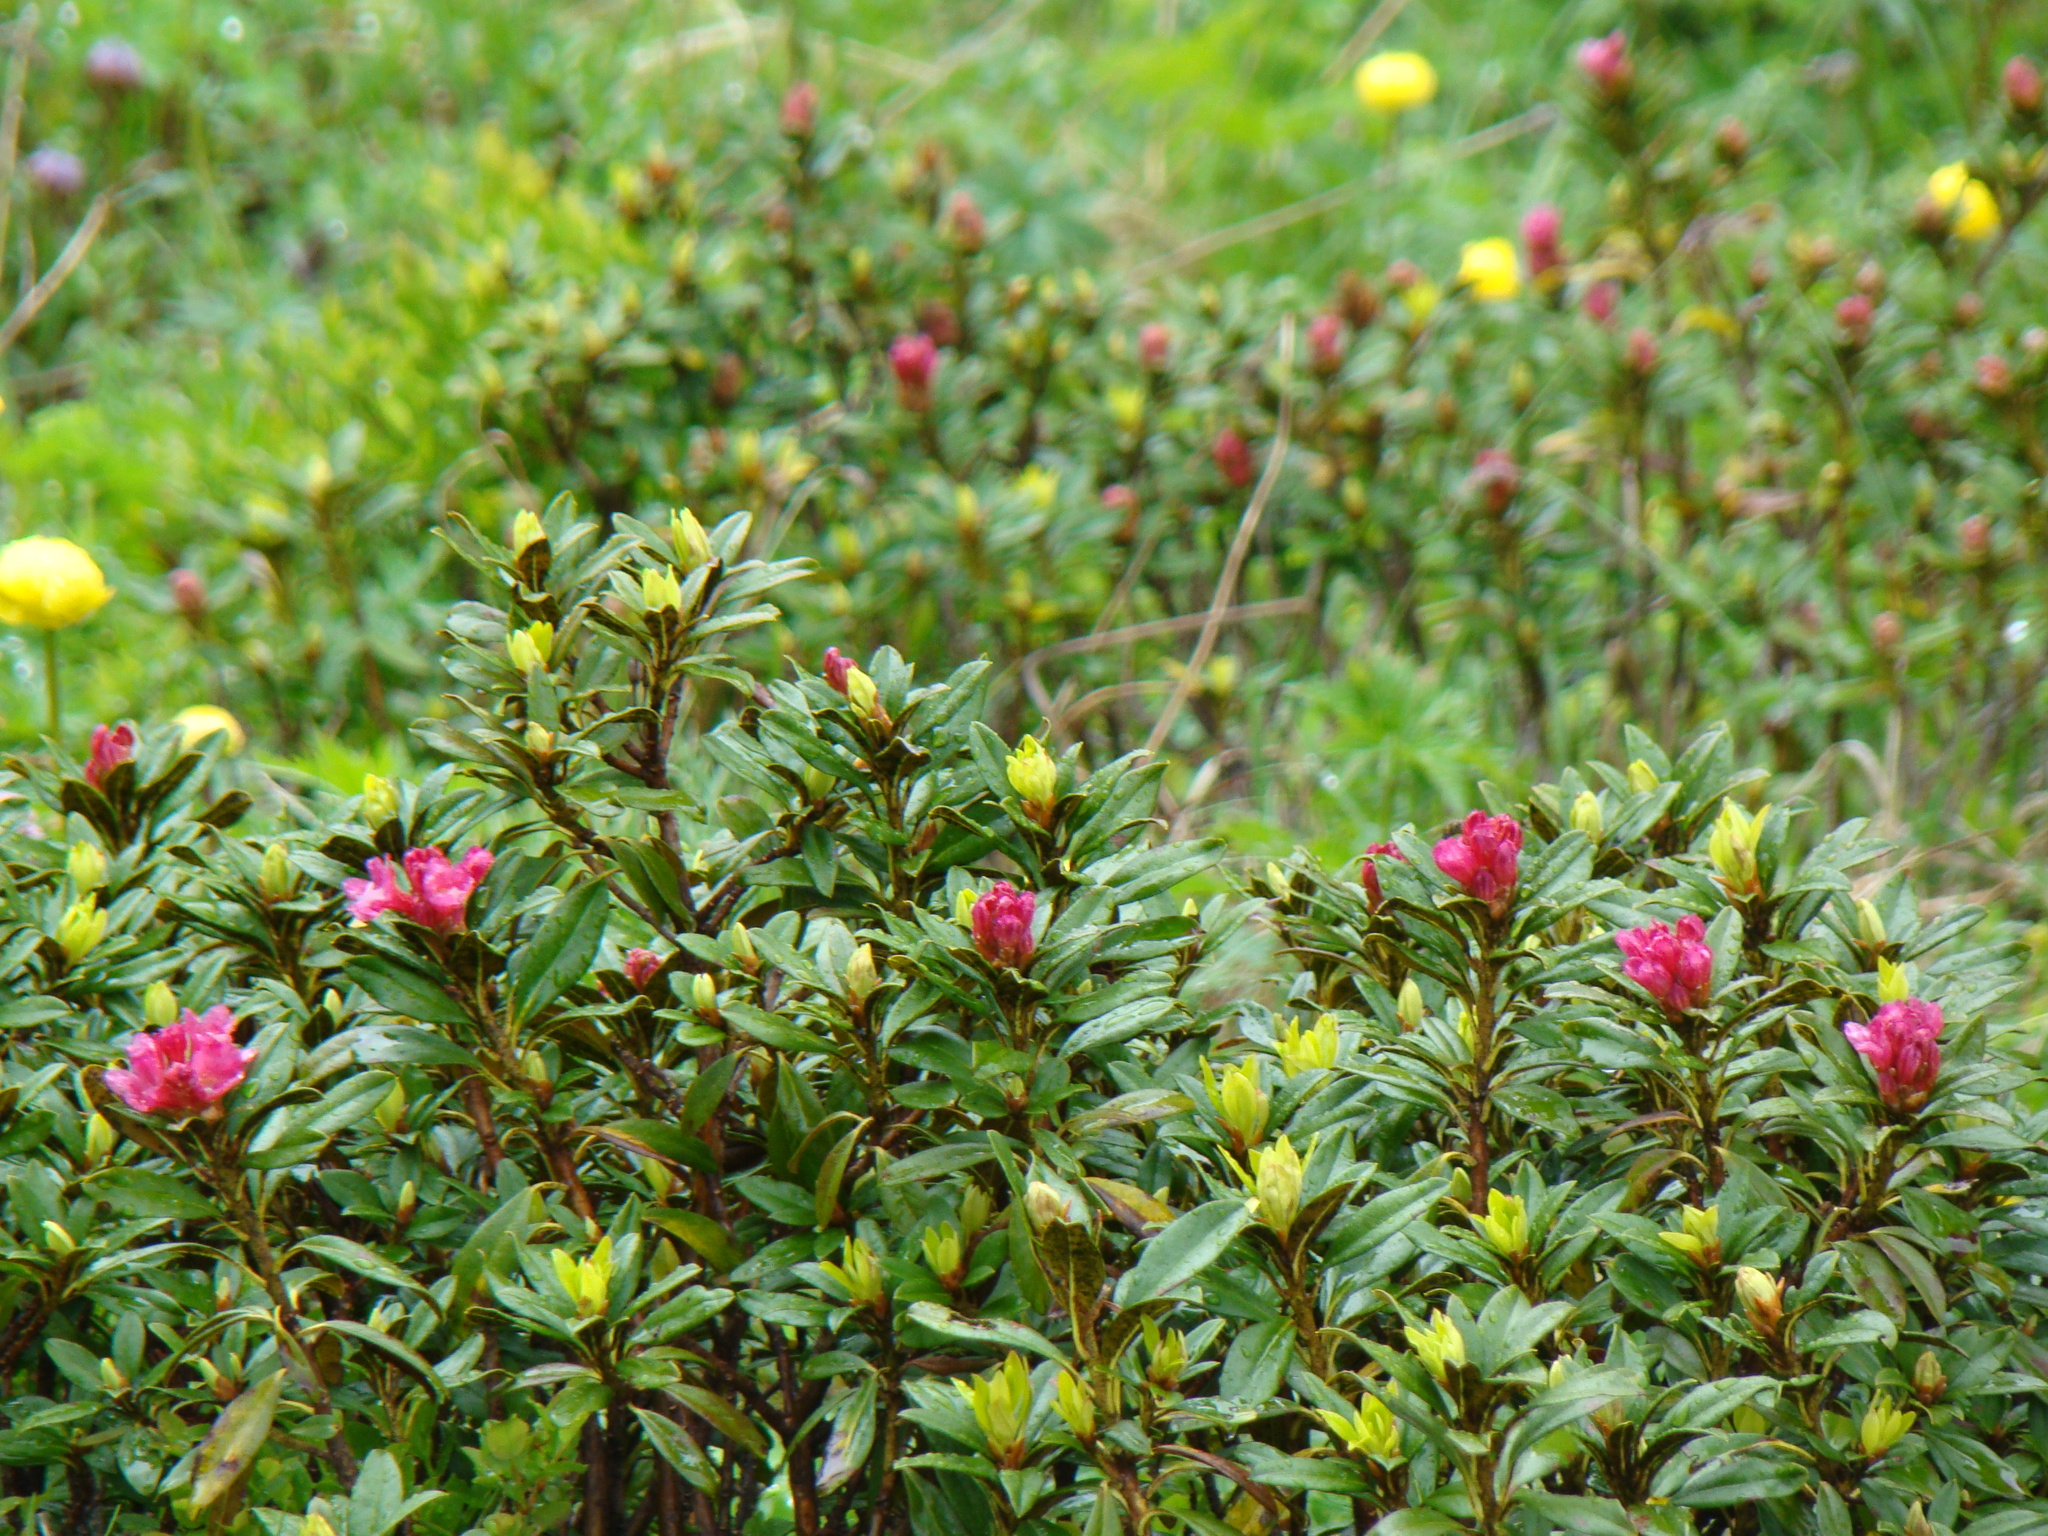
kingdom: Plantae
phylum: Tracheophyta
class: Magnoliopsida
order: Ericales
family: Ericaceae
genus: Rhododendron
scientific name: Rhododendron ferrugineum
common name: Alpenrose
